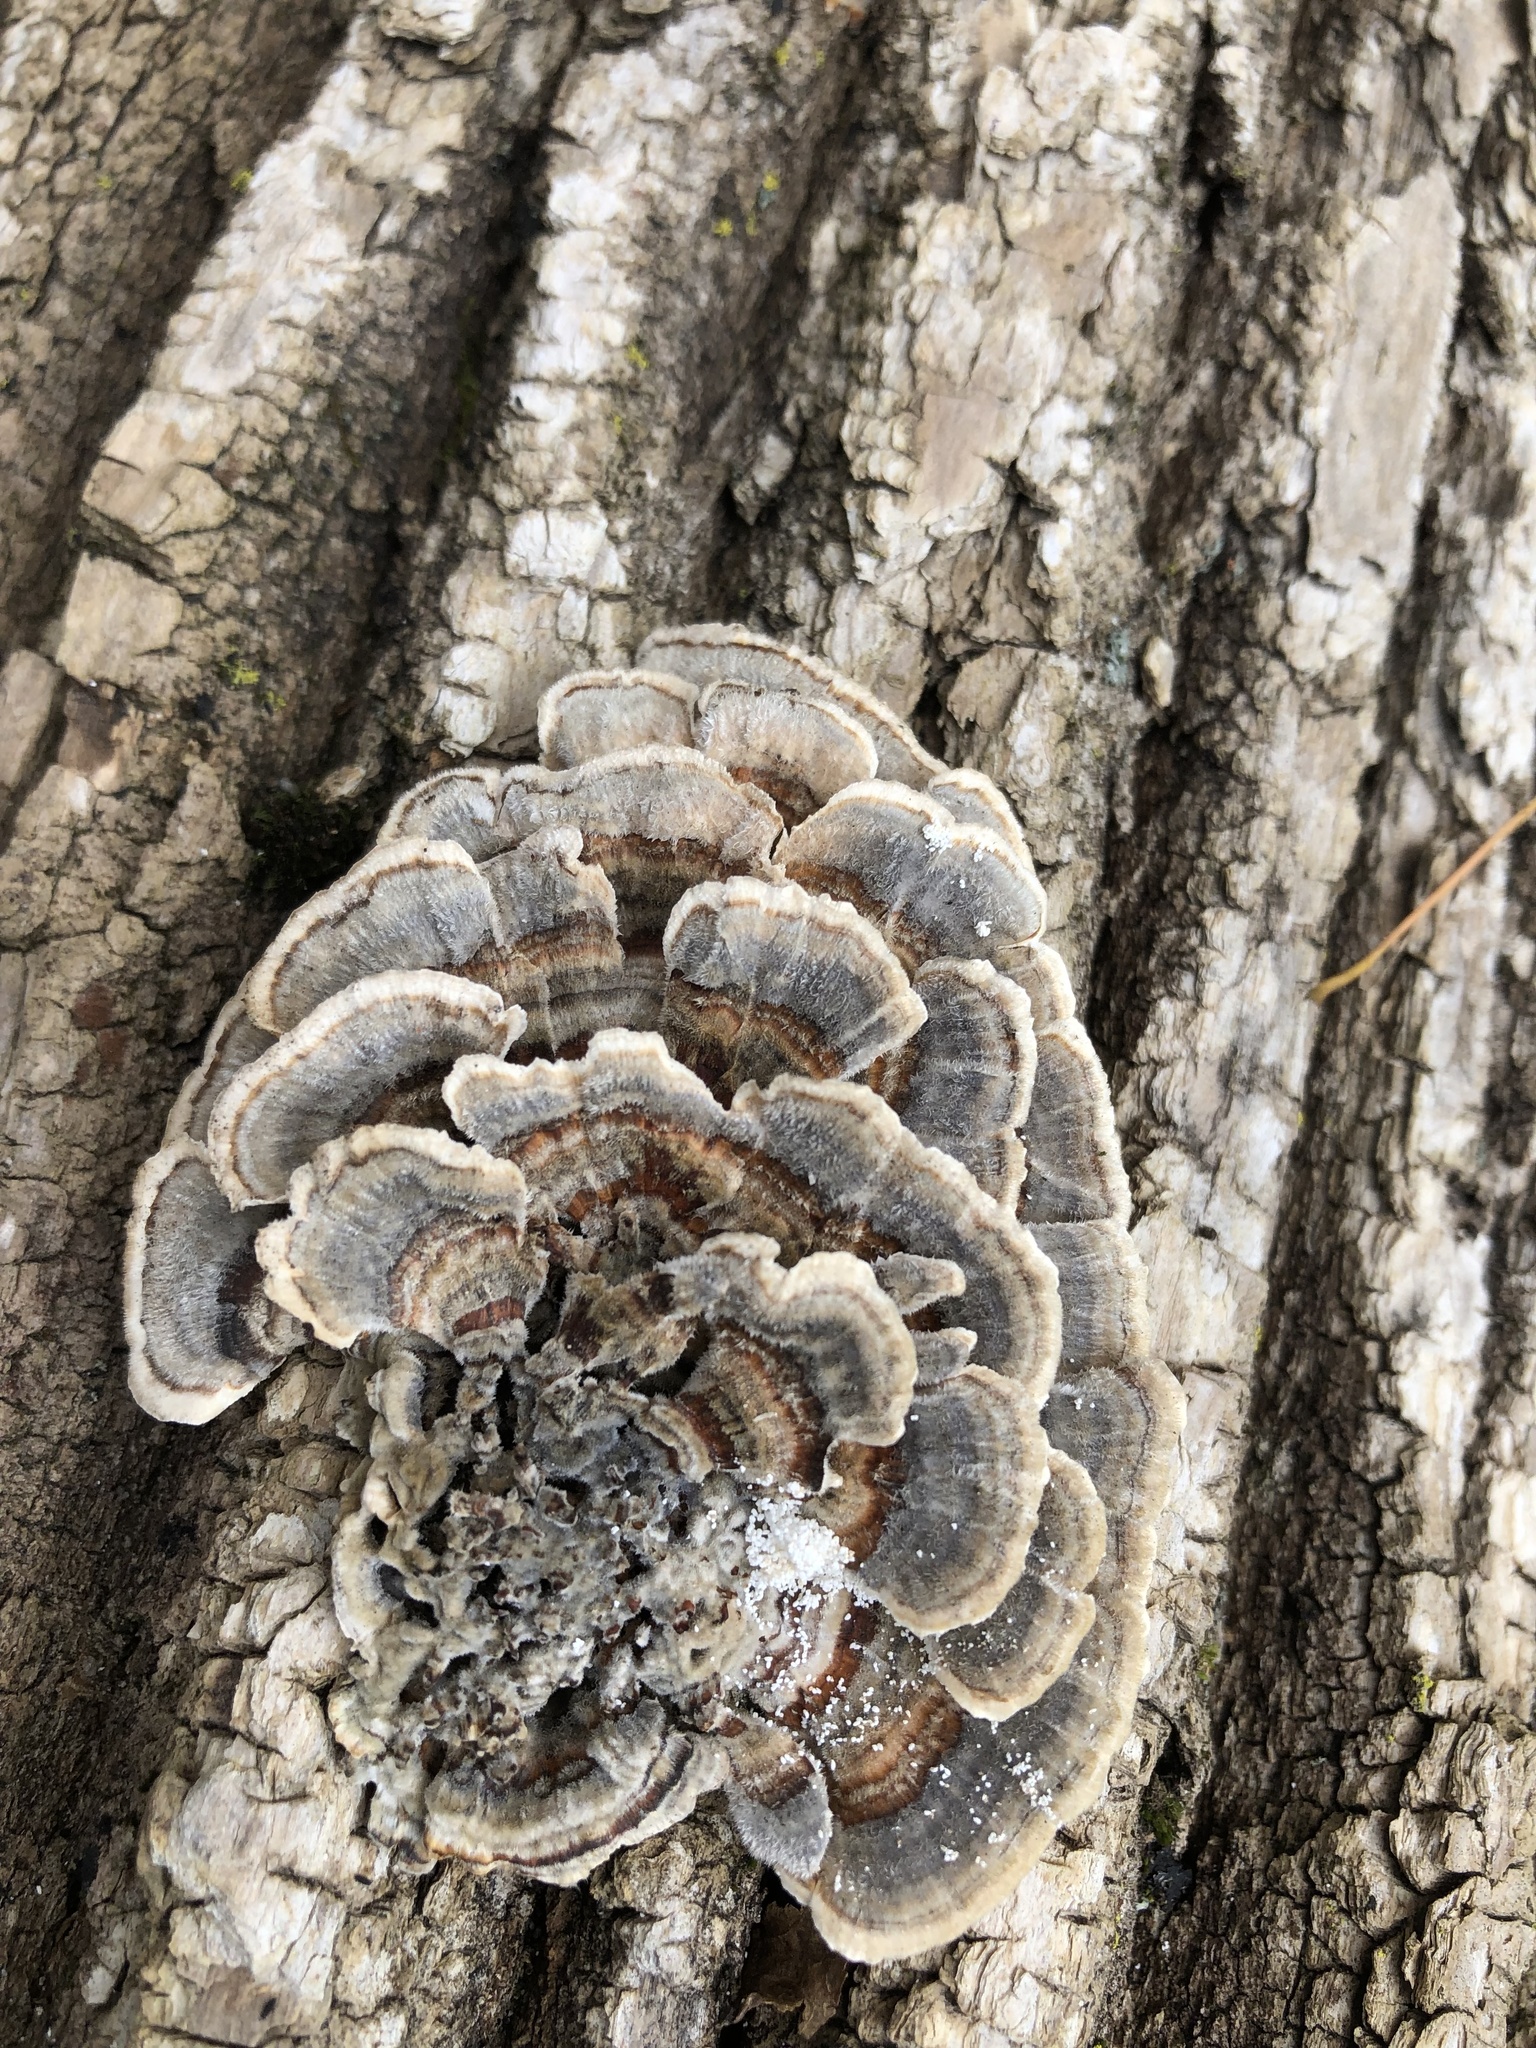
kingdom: Fungi
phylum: Basidiomycota
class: Agaricomycetes
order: Polyporales
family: Polyporaceae
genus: Trametes
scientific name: Trametes versicolor
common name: Turkeytail
